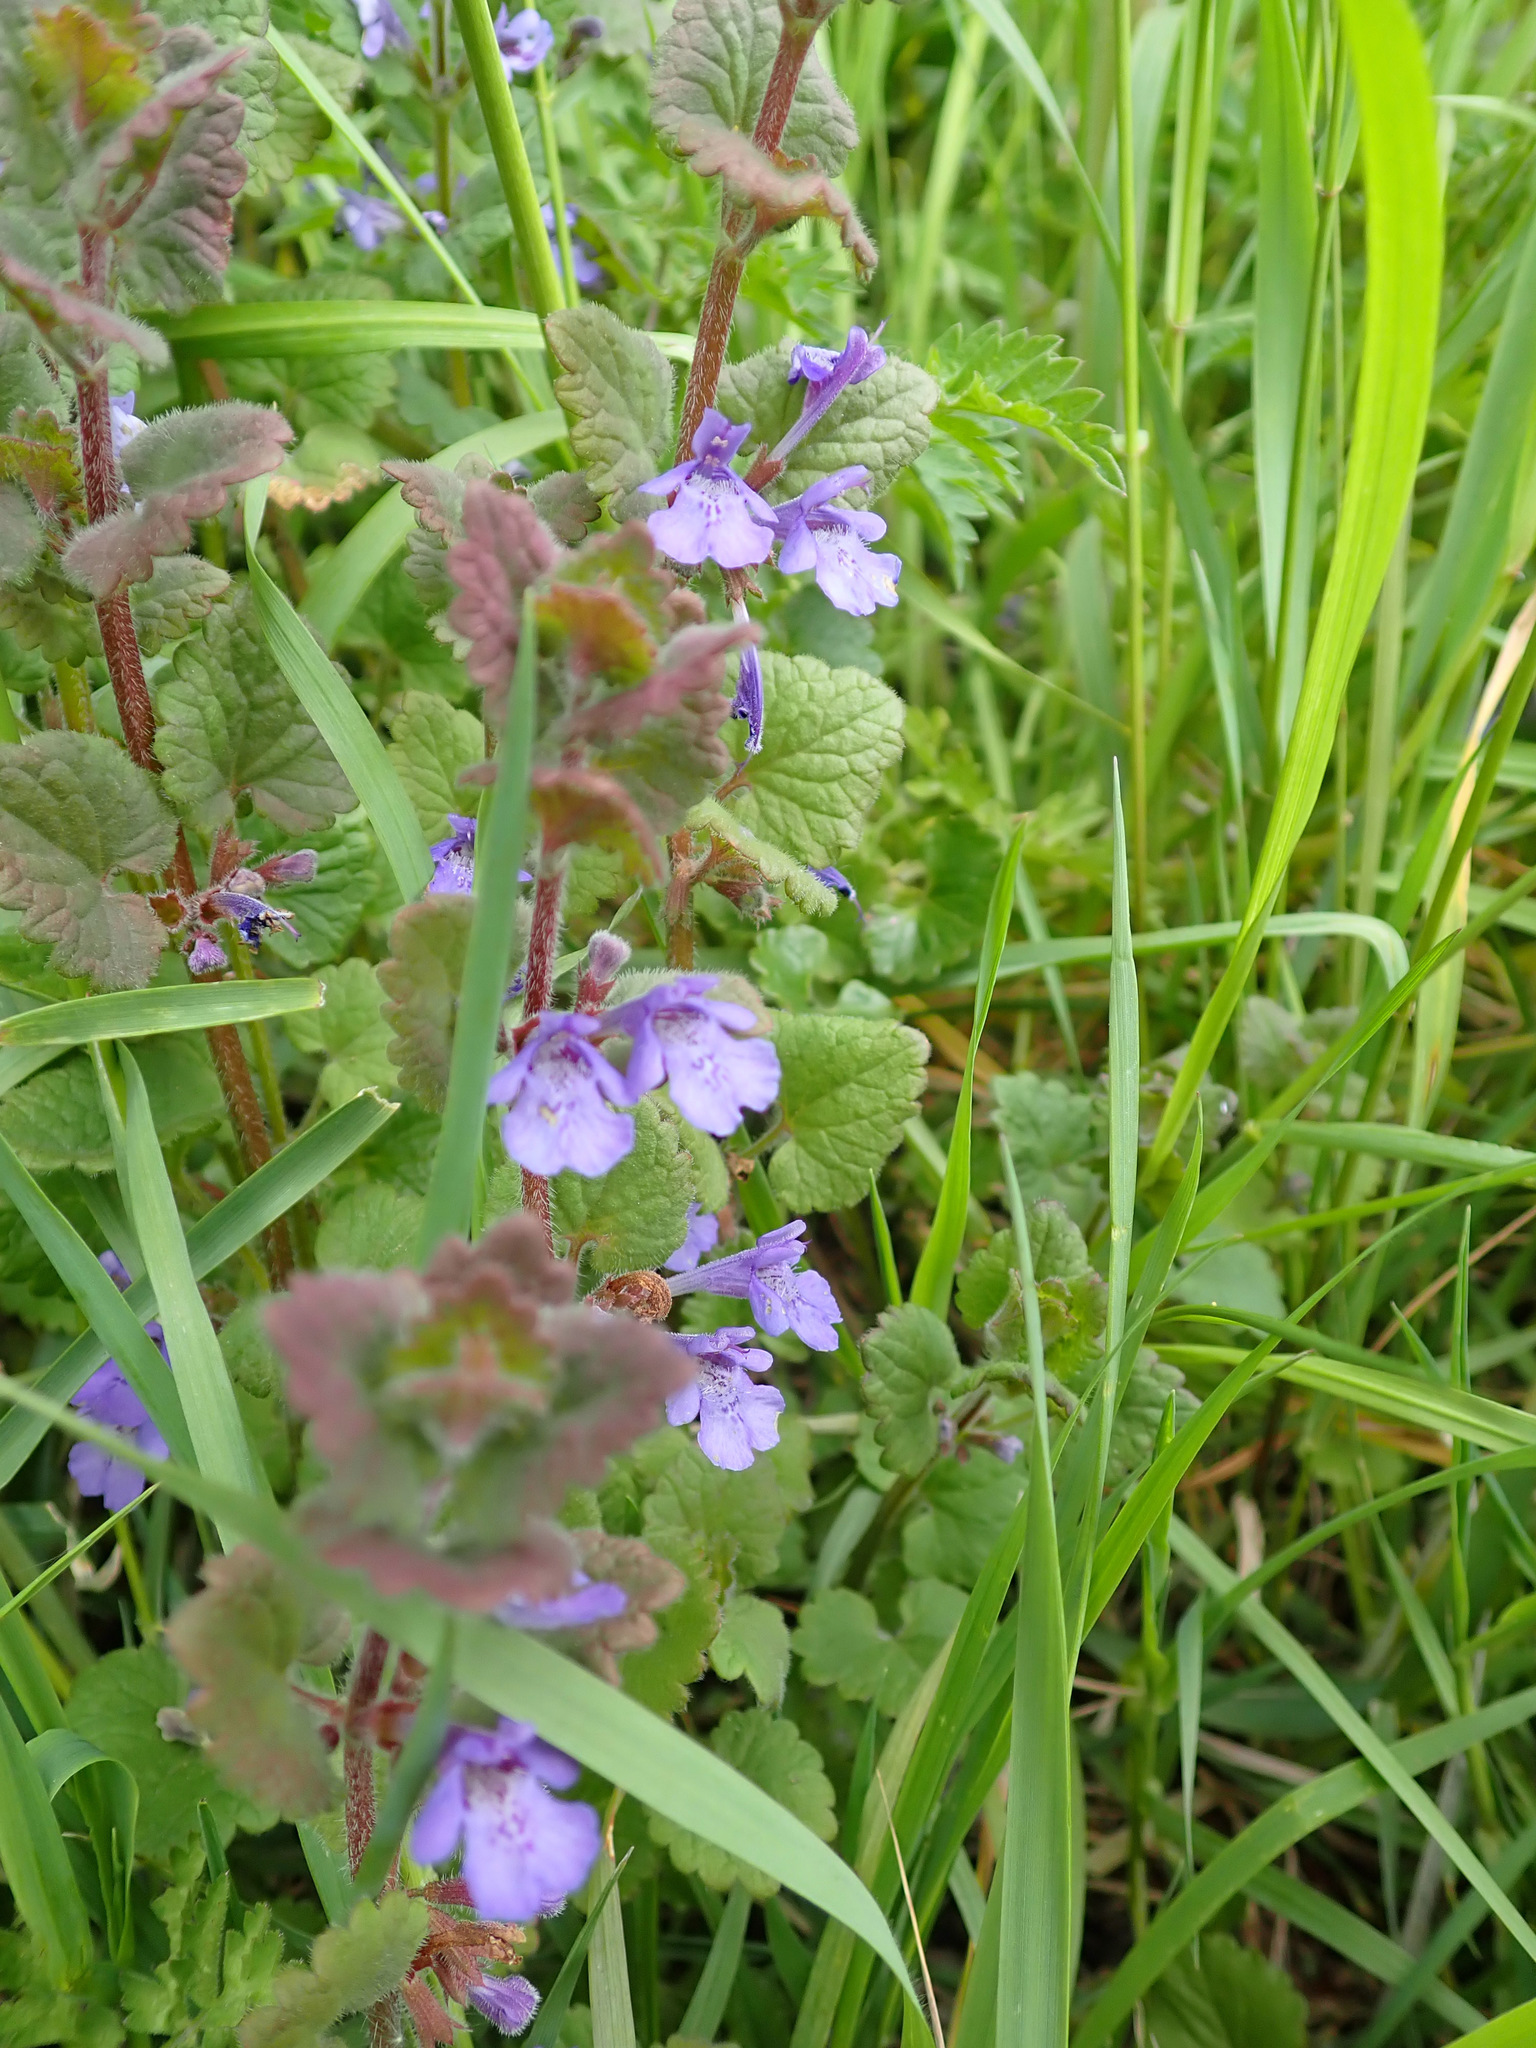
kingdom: Plantae
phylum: Tracheophyta
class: Magnoliopsida
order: Lamiales
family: Lamiaceae
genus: Glechoma
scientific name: Glechoma hederacea
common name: Ground ivy
